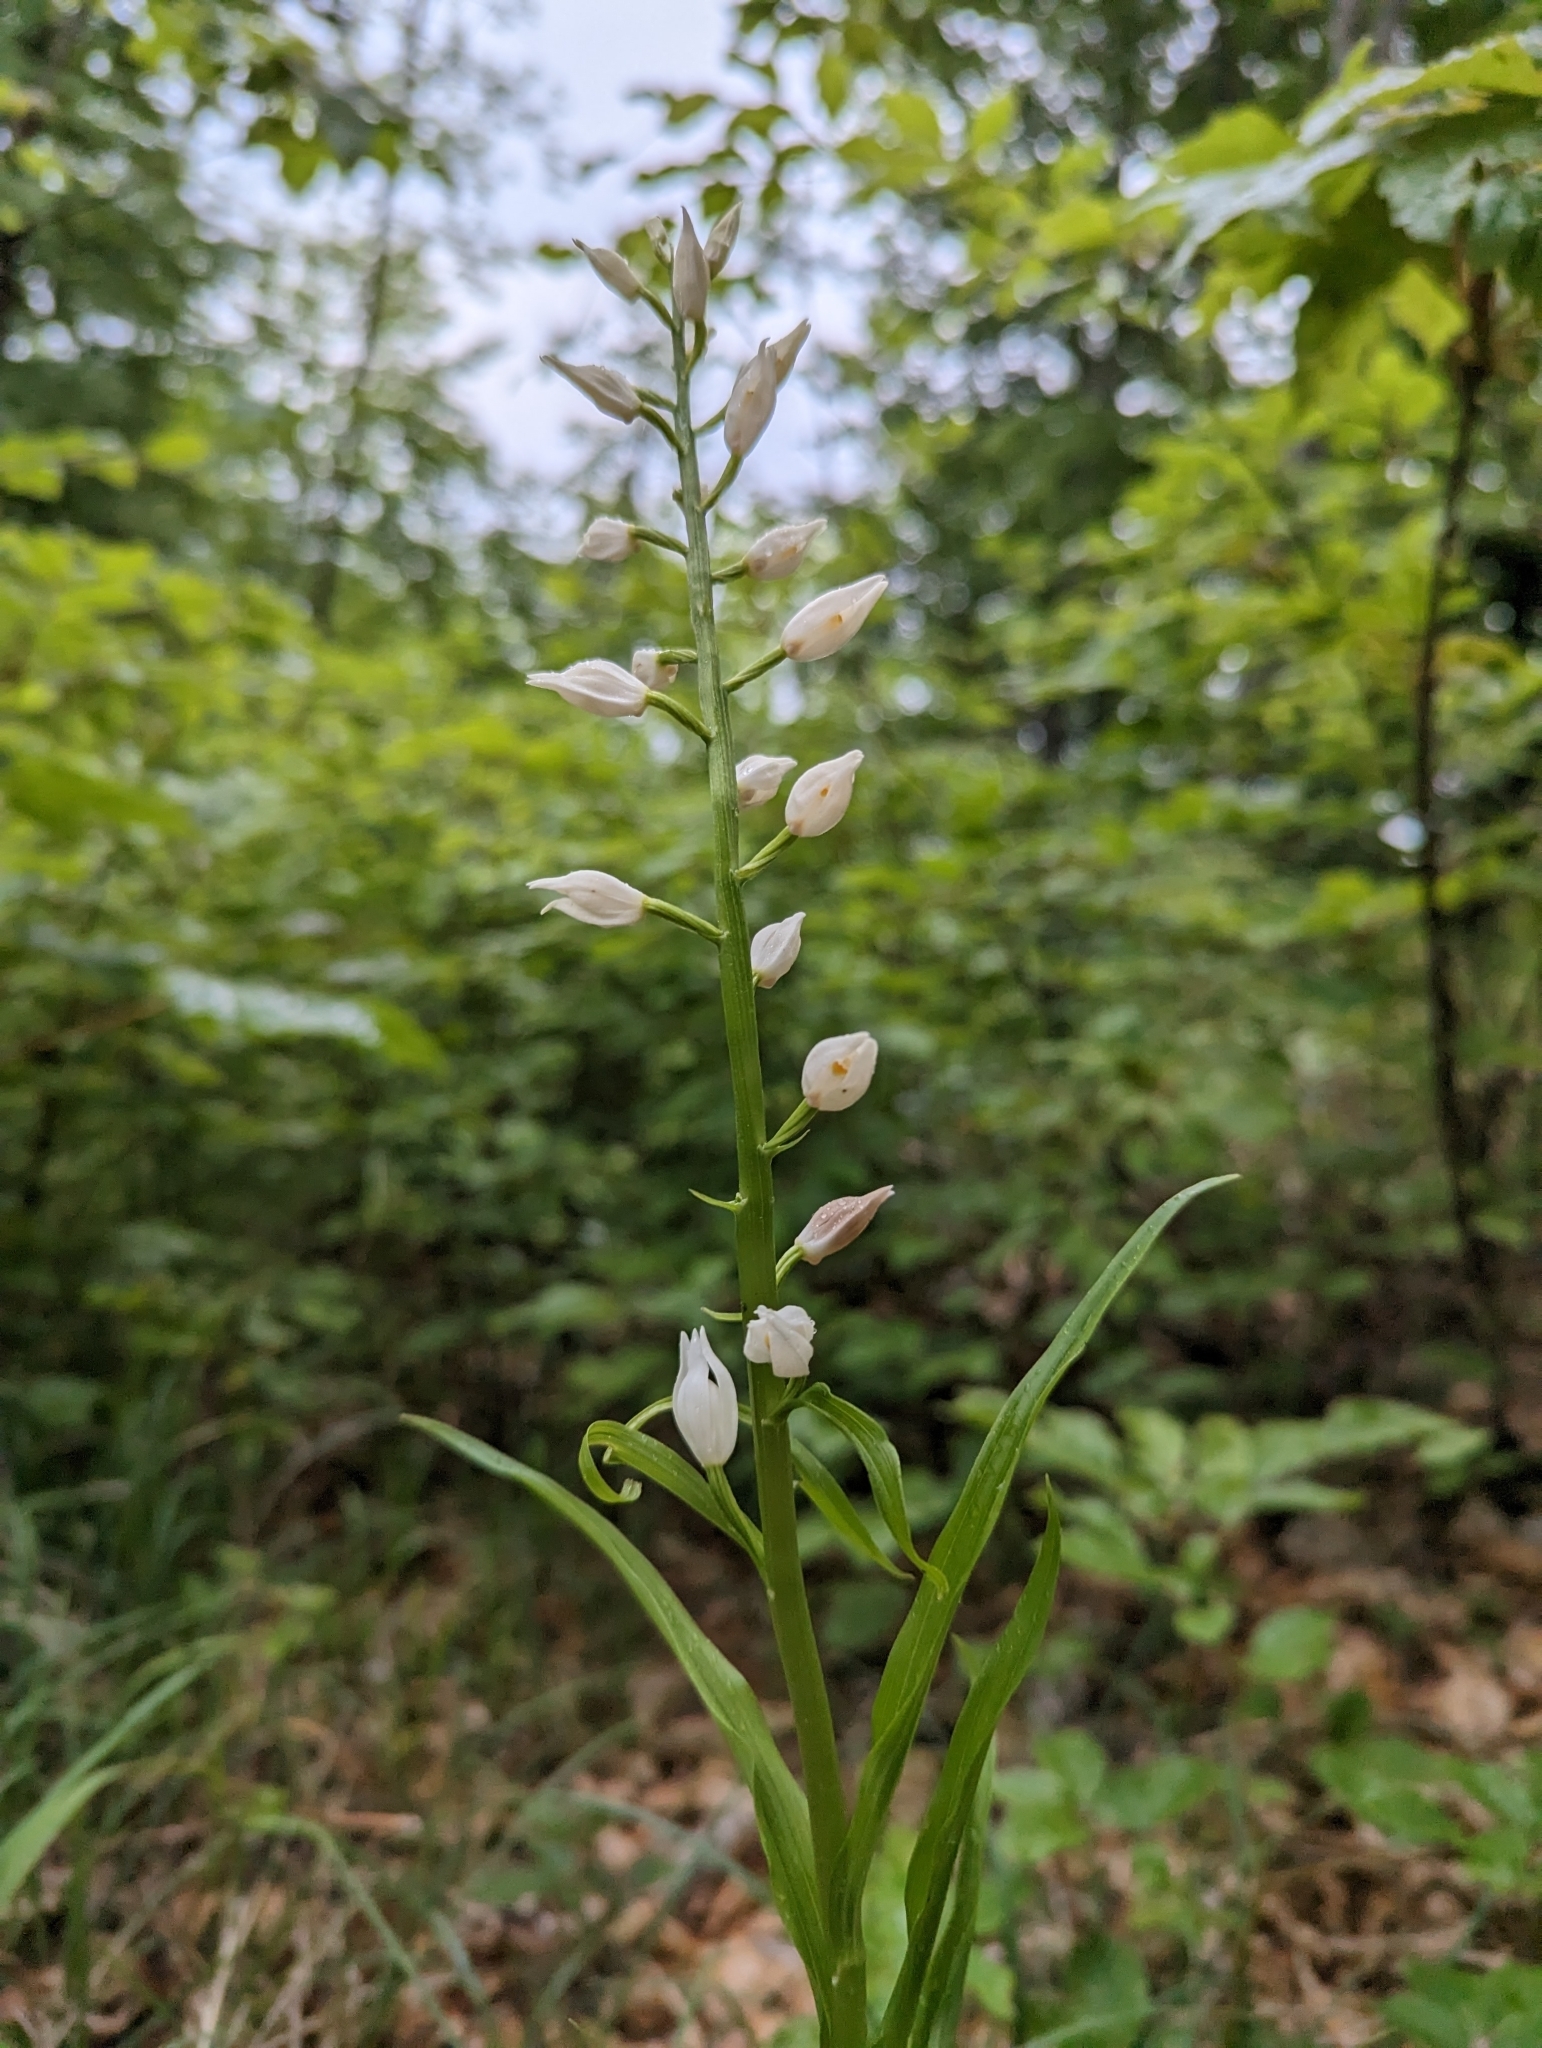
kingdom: Plantae
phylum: Tracheophyta
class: Liliopsida
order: Asparagales
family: Orchidaceae
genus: Cephalanthera
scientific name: Cephalanthera longifolia
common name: Narrow-leaved helleborine
